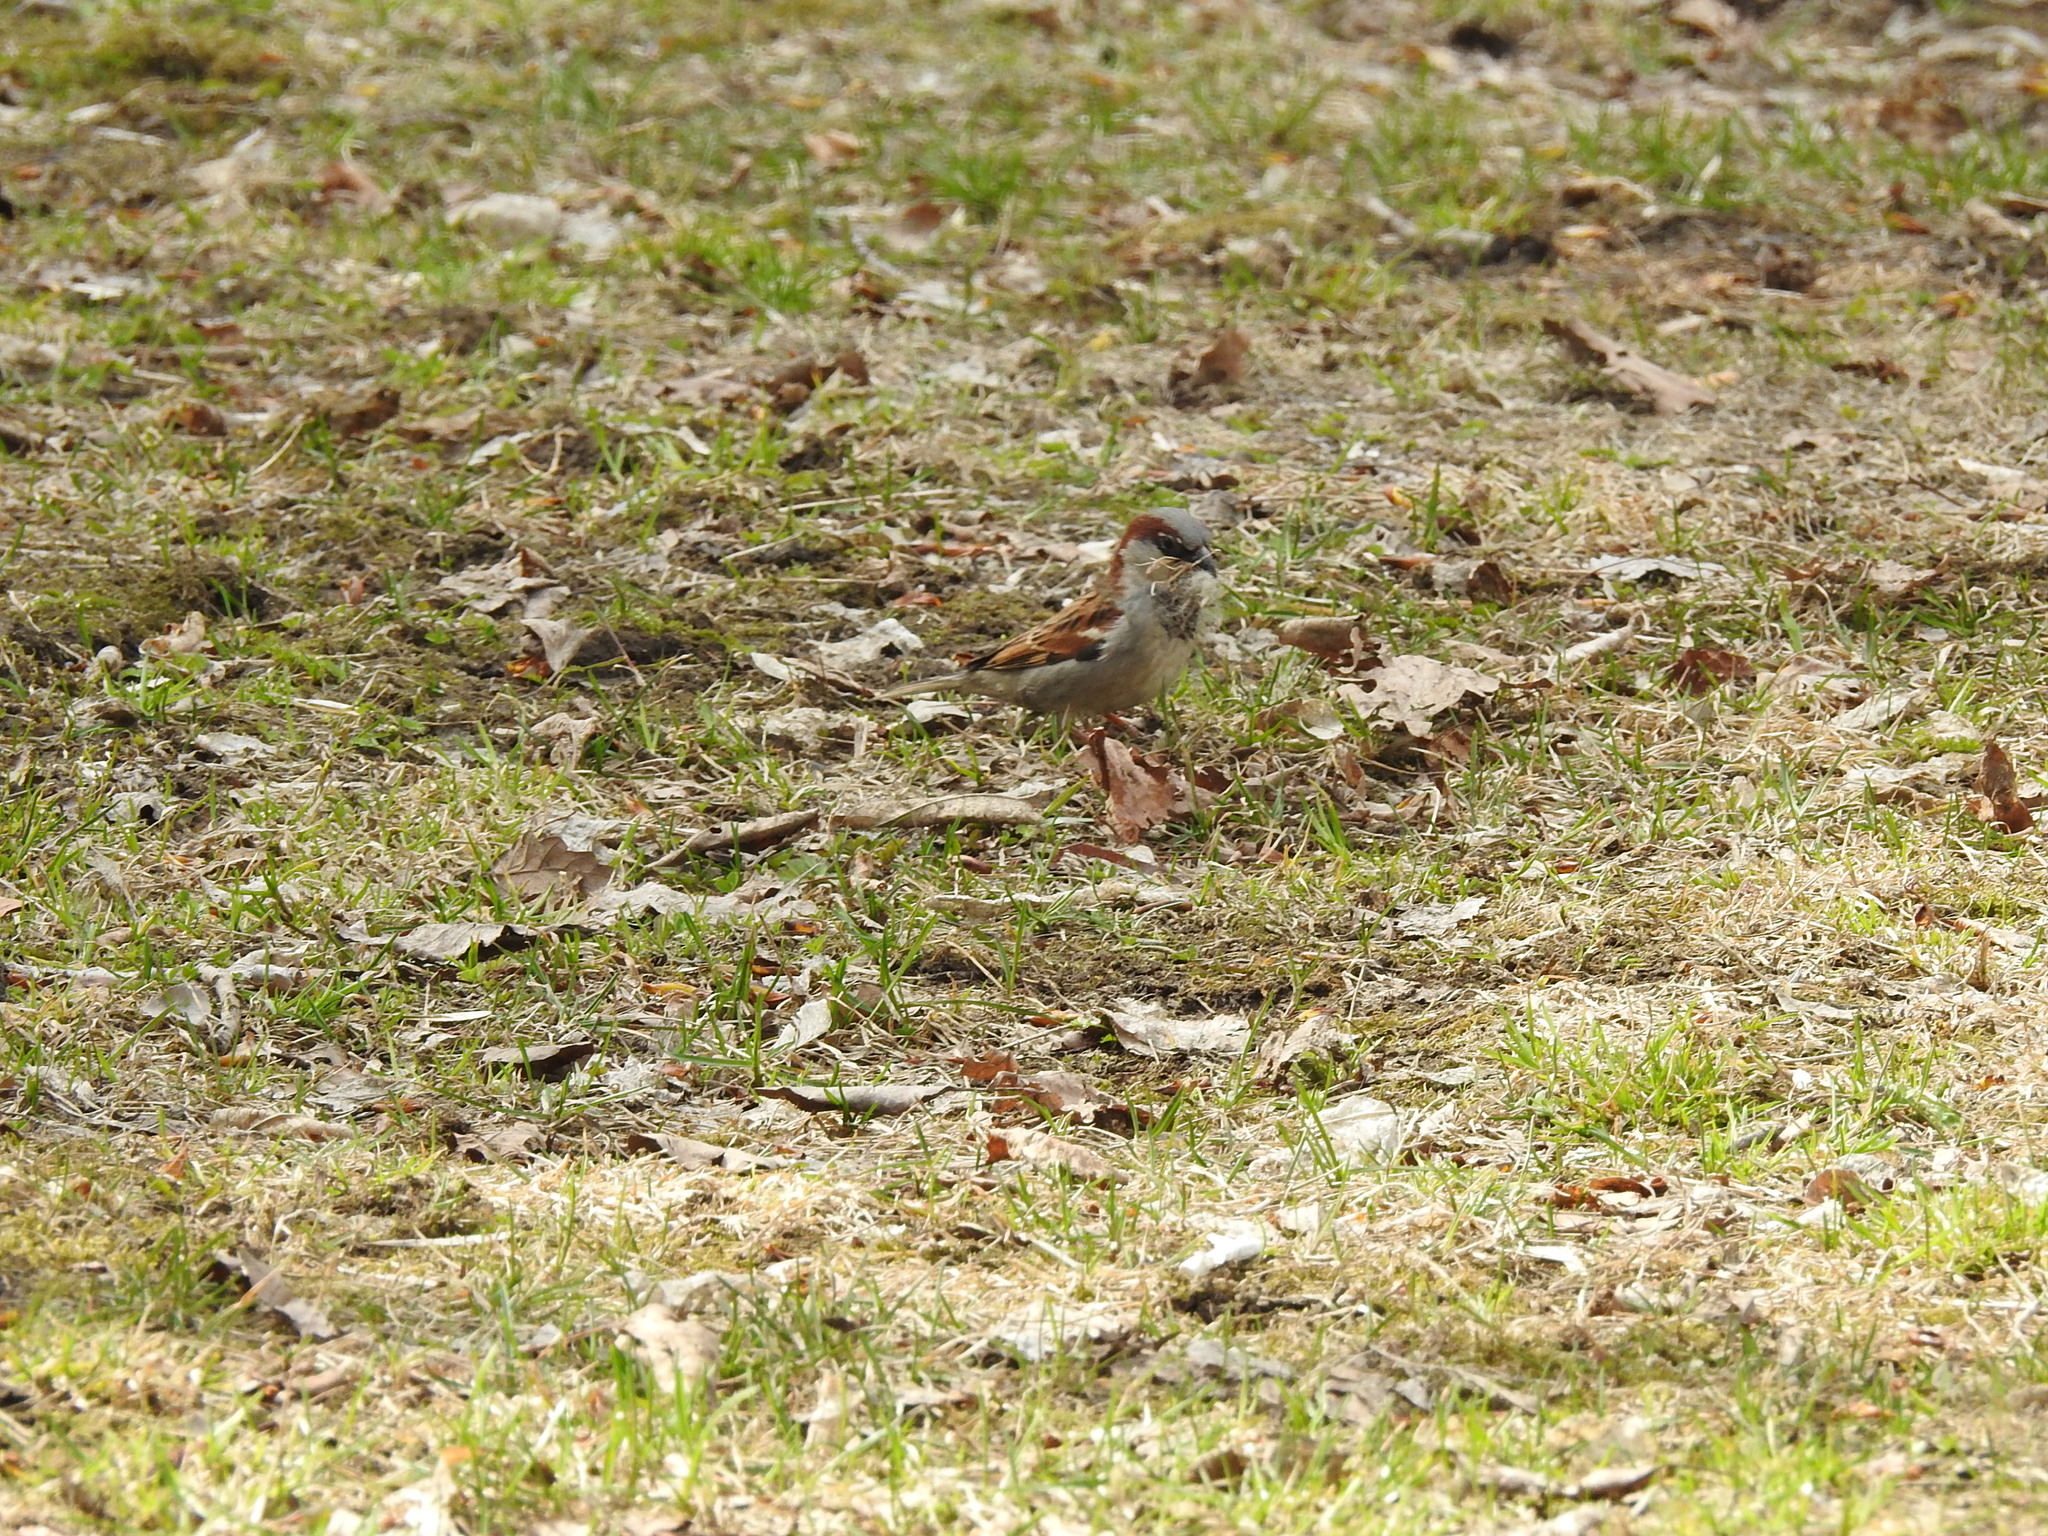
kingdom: Animalia
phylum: Chordata
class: Aves
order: Passeriformes
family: Passeridae
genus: Passer
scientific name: Passer domesticus
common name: House sparrow
